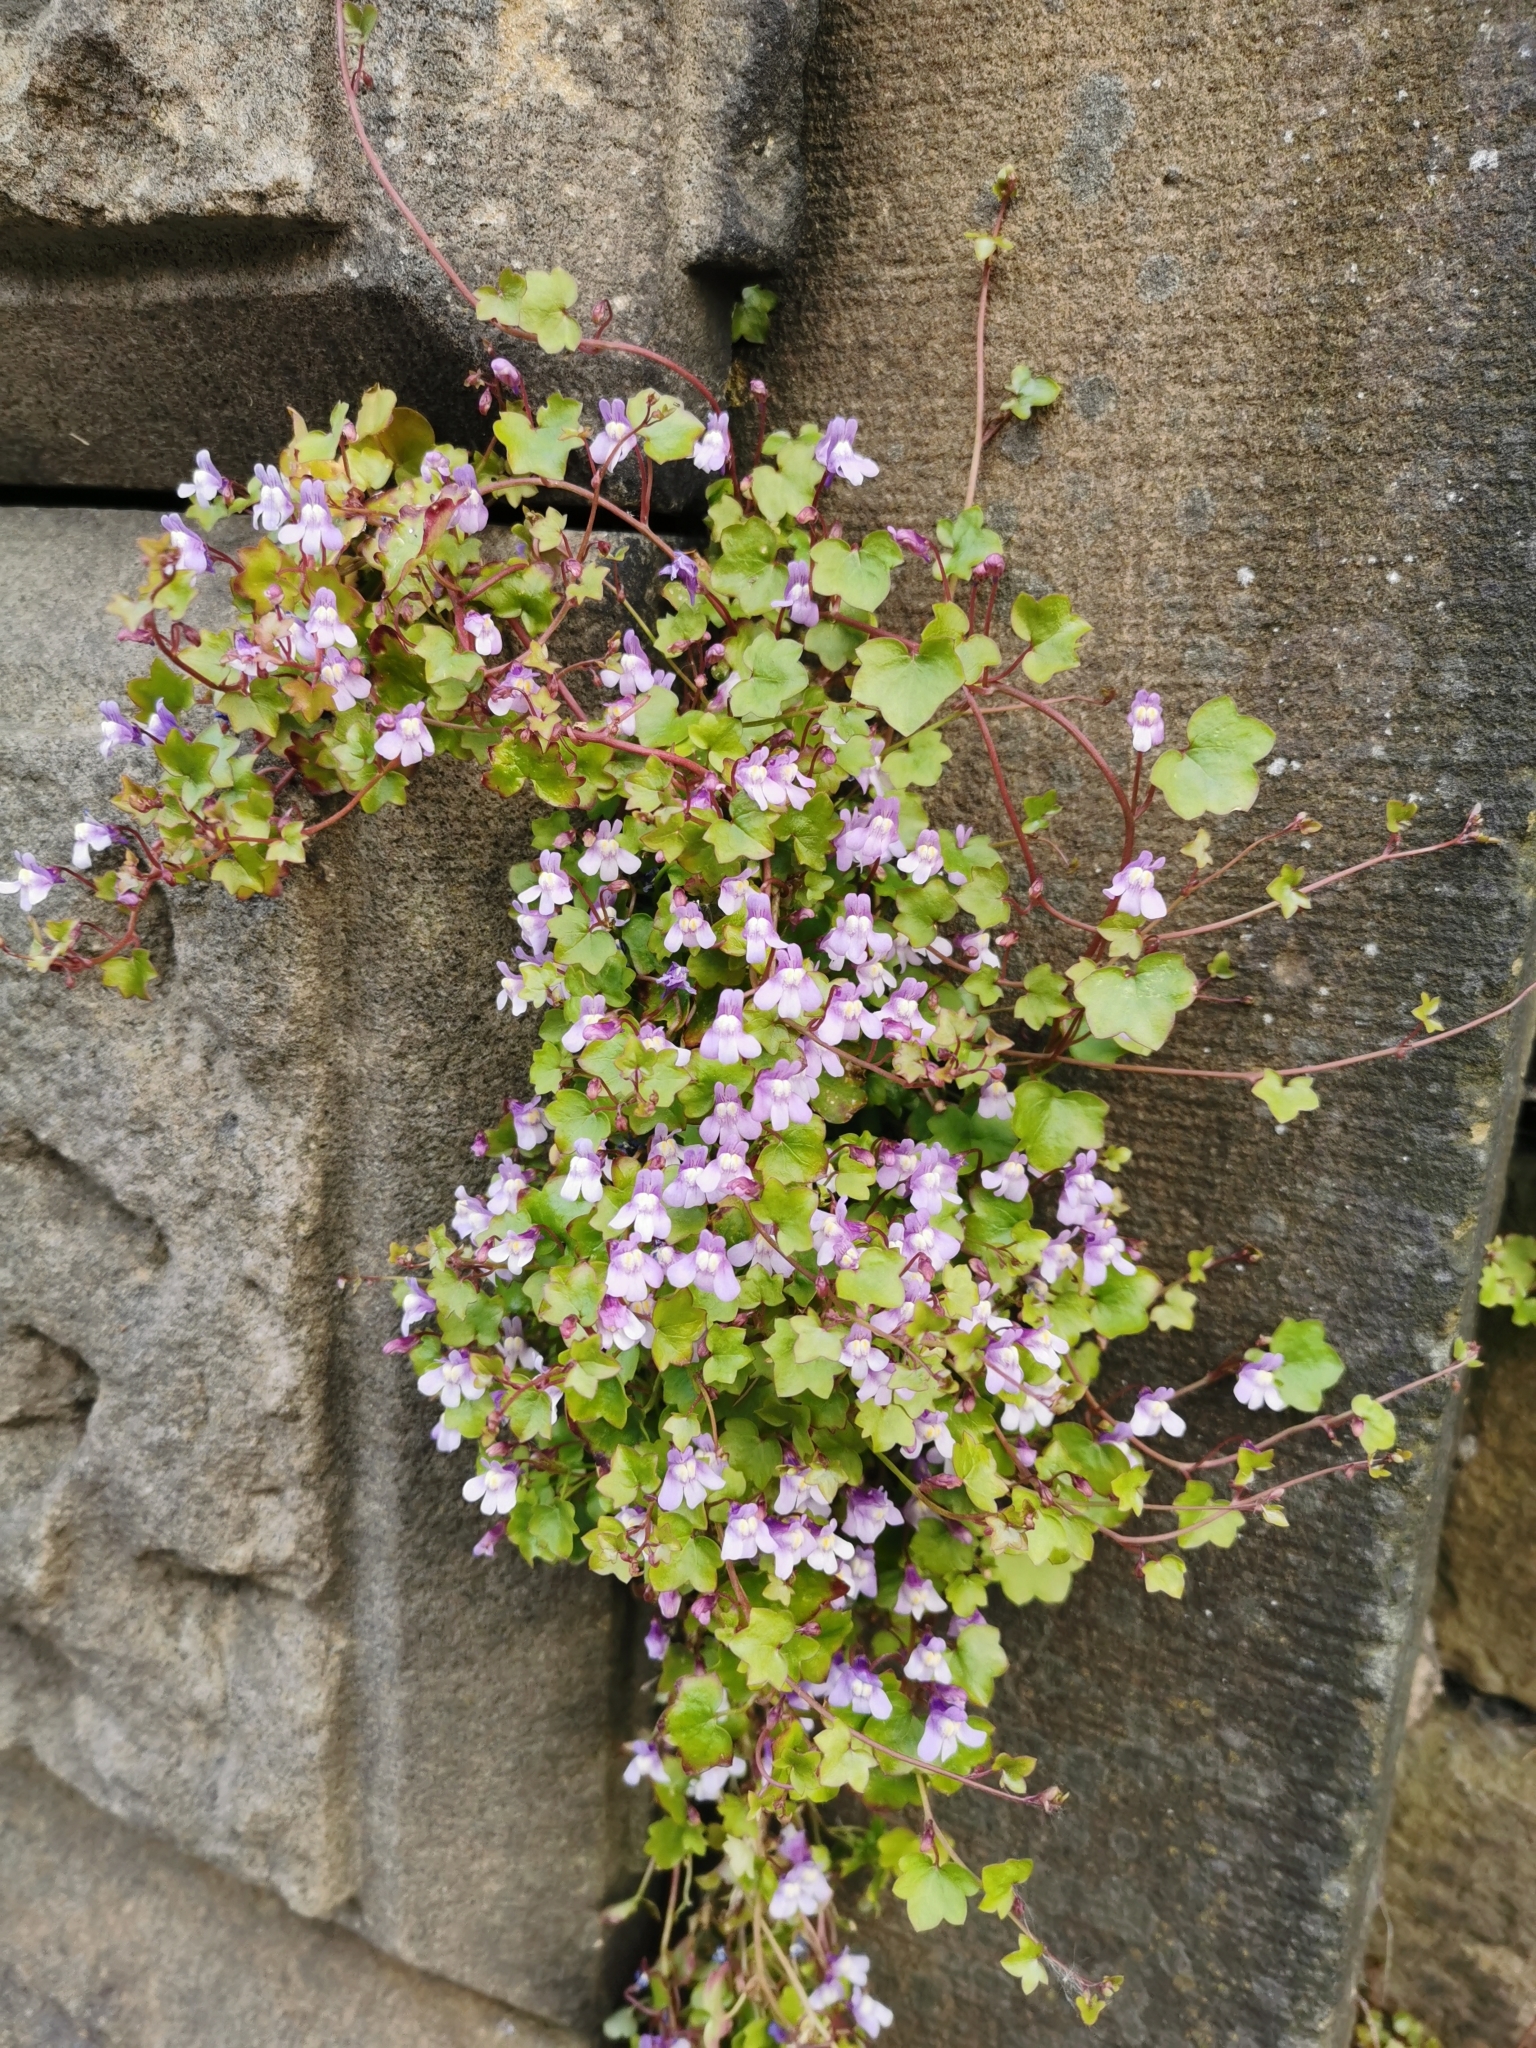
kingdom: Plantae
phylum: Tracheophyta
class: Magnoliopsida
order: Lamiales
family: Plantaginaceae
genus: Cymbalaria
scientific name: Cymbalaria muralis
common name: Ivy-leaved toadflax
